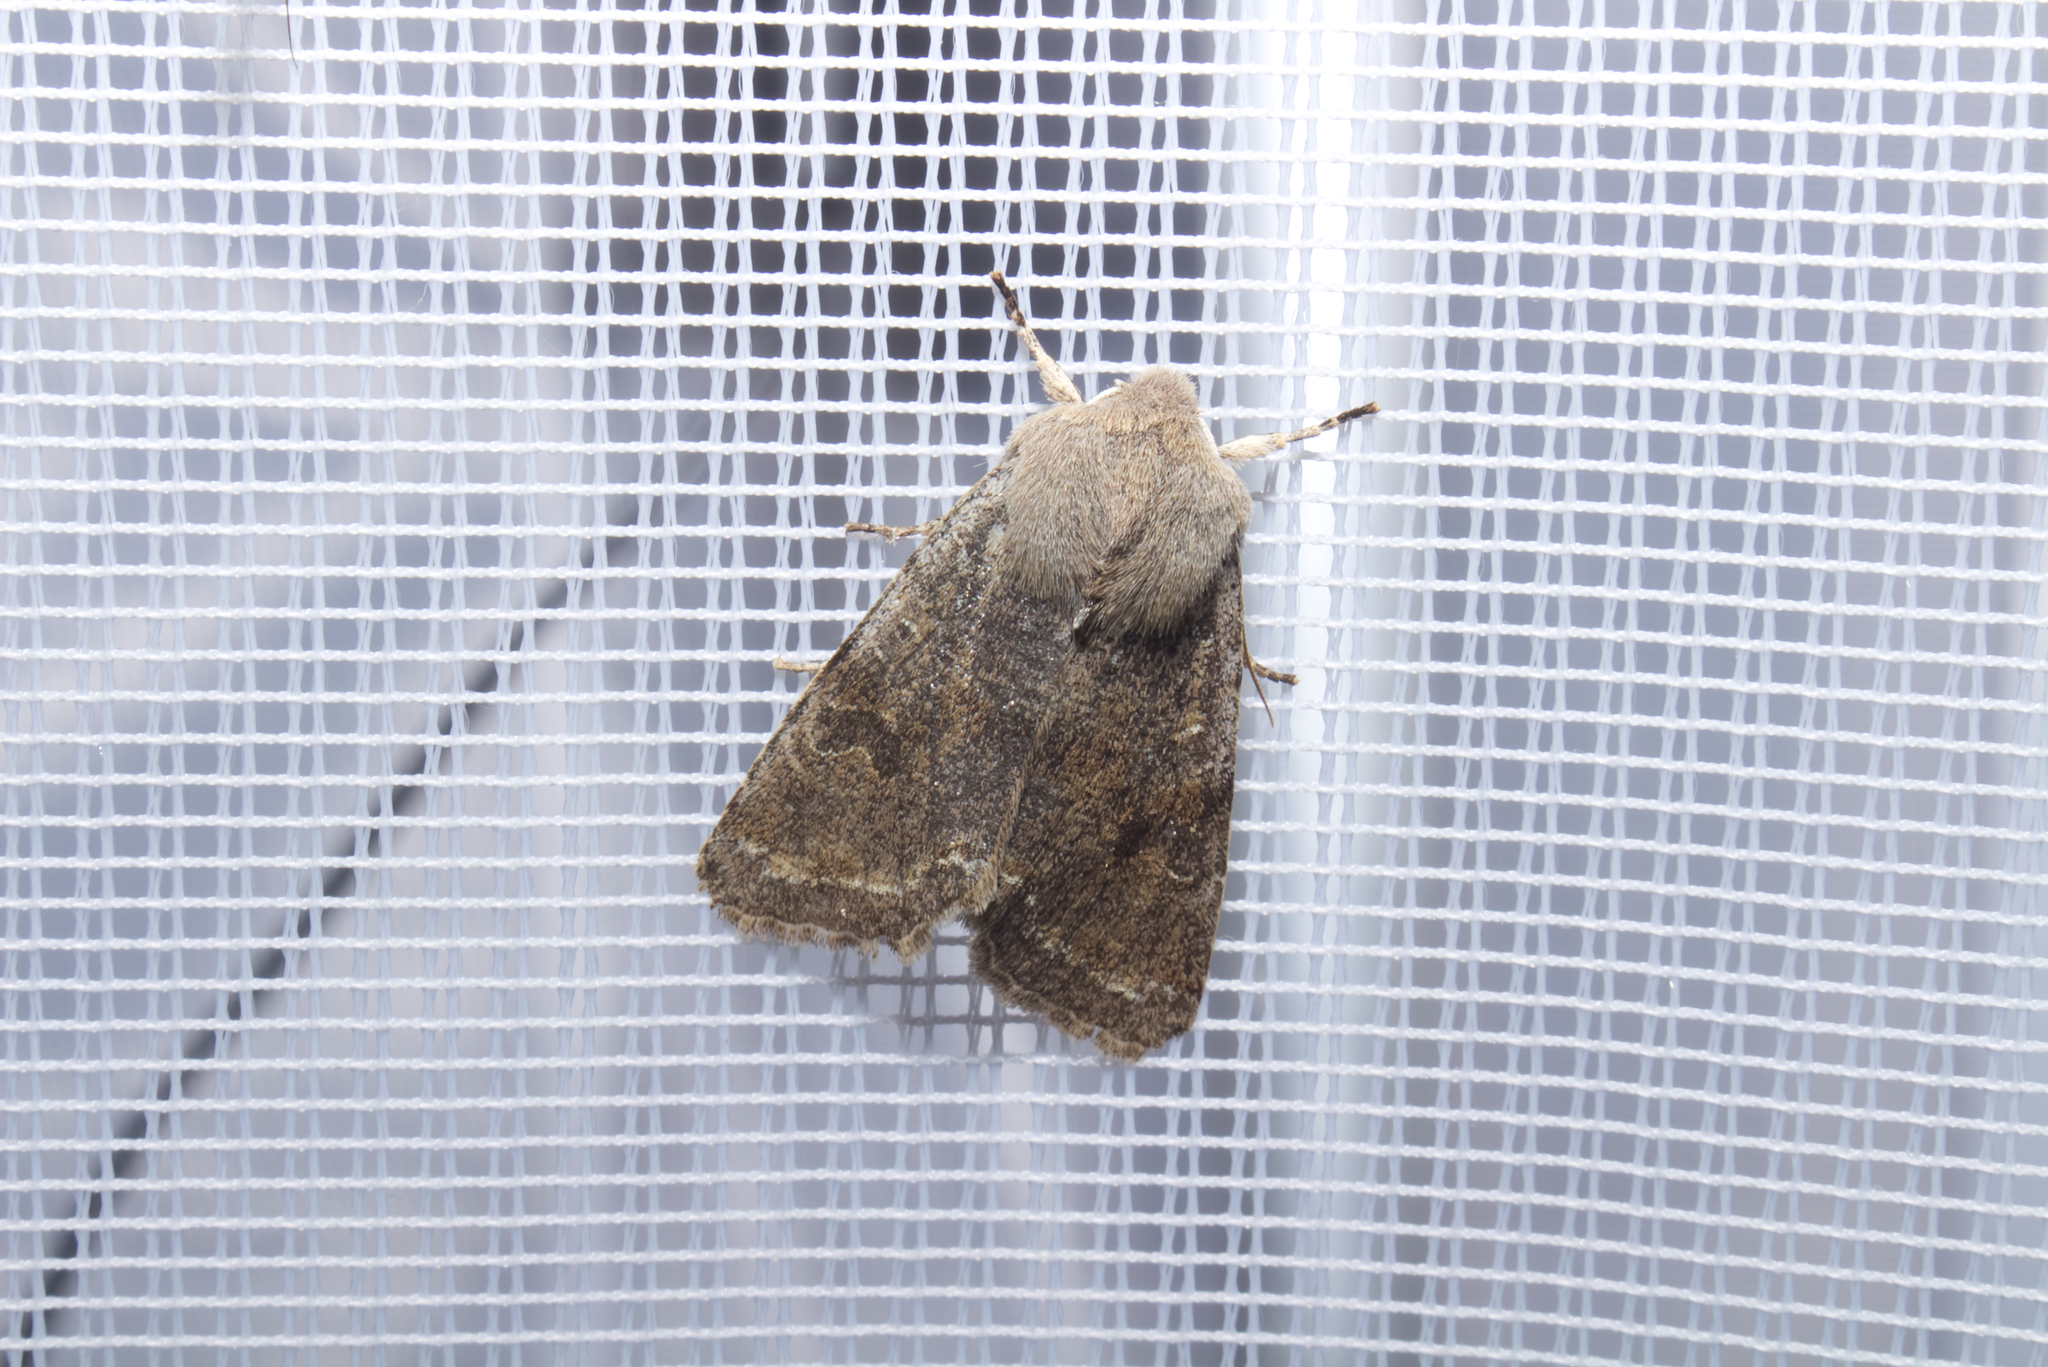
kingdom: Animalia
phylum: Arthropoda
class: Insecta
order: Lepidoptera
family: Noctuidae
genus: Orthosia
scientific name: Orthosia incerta
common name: Clouded drab
